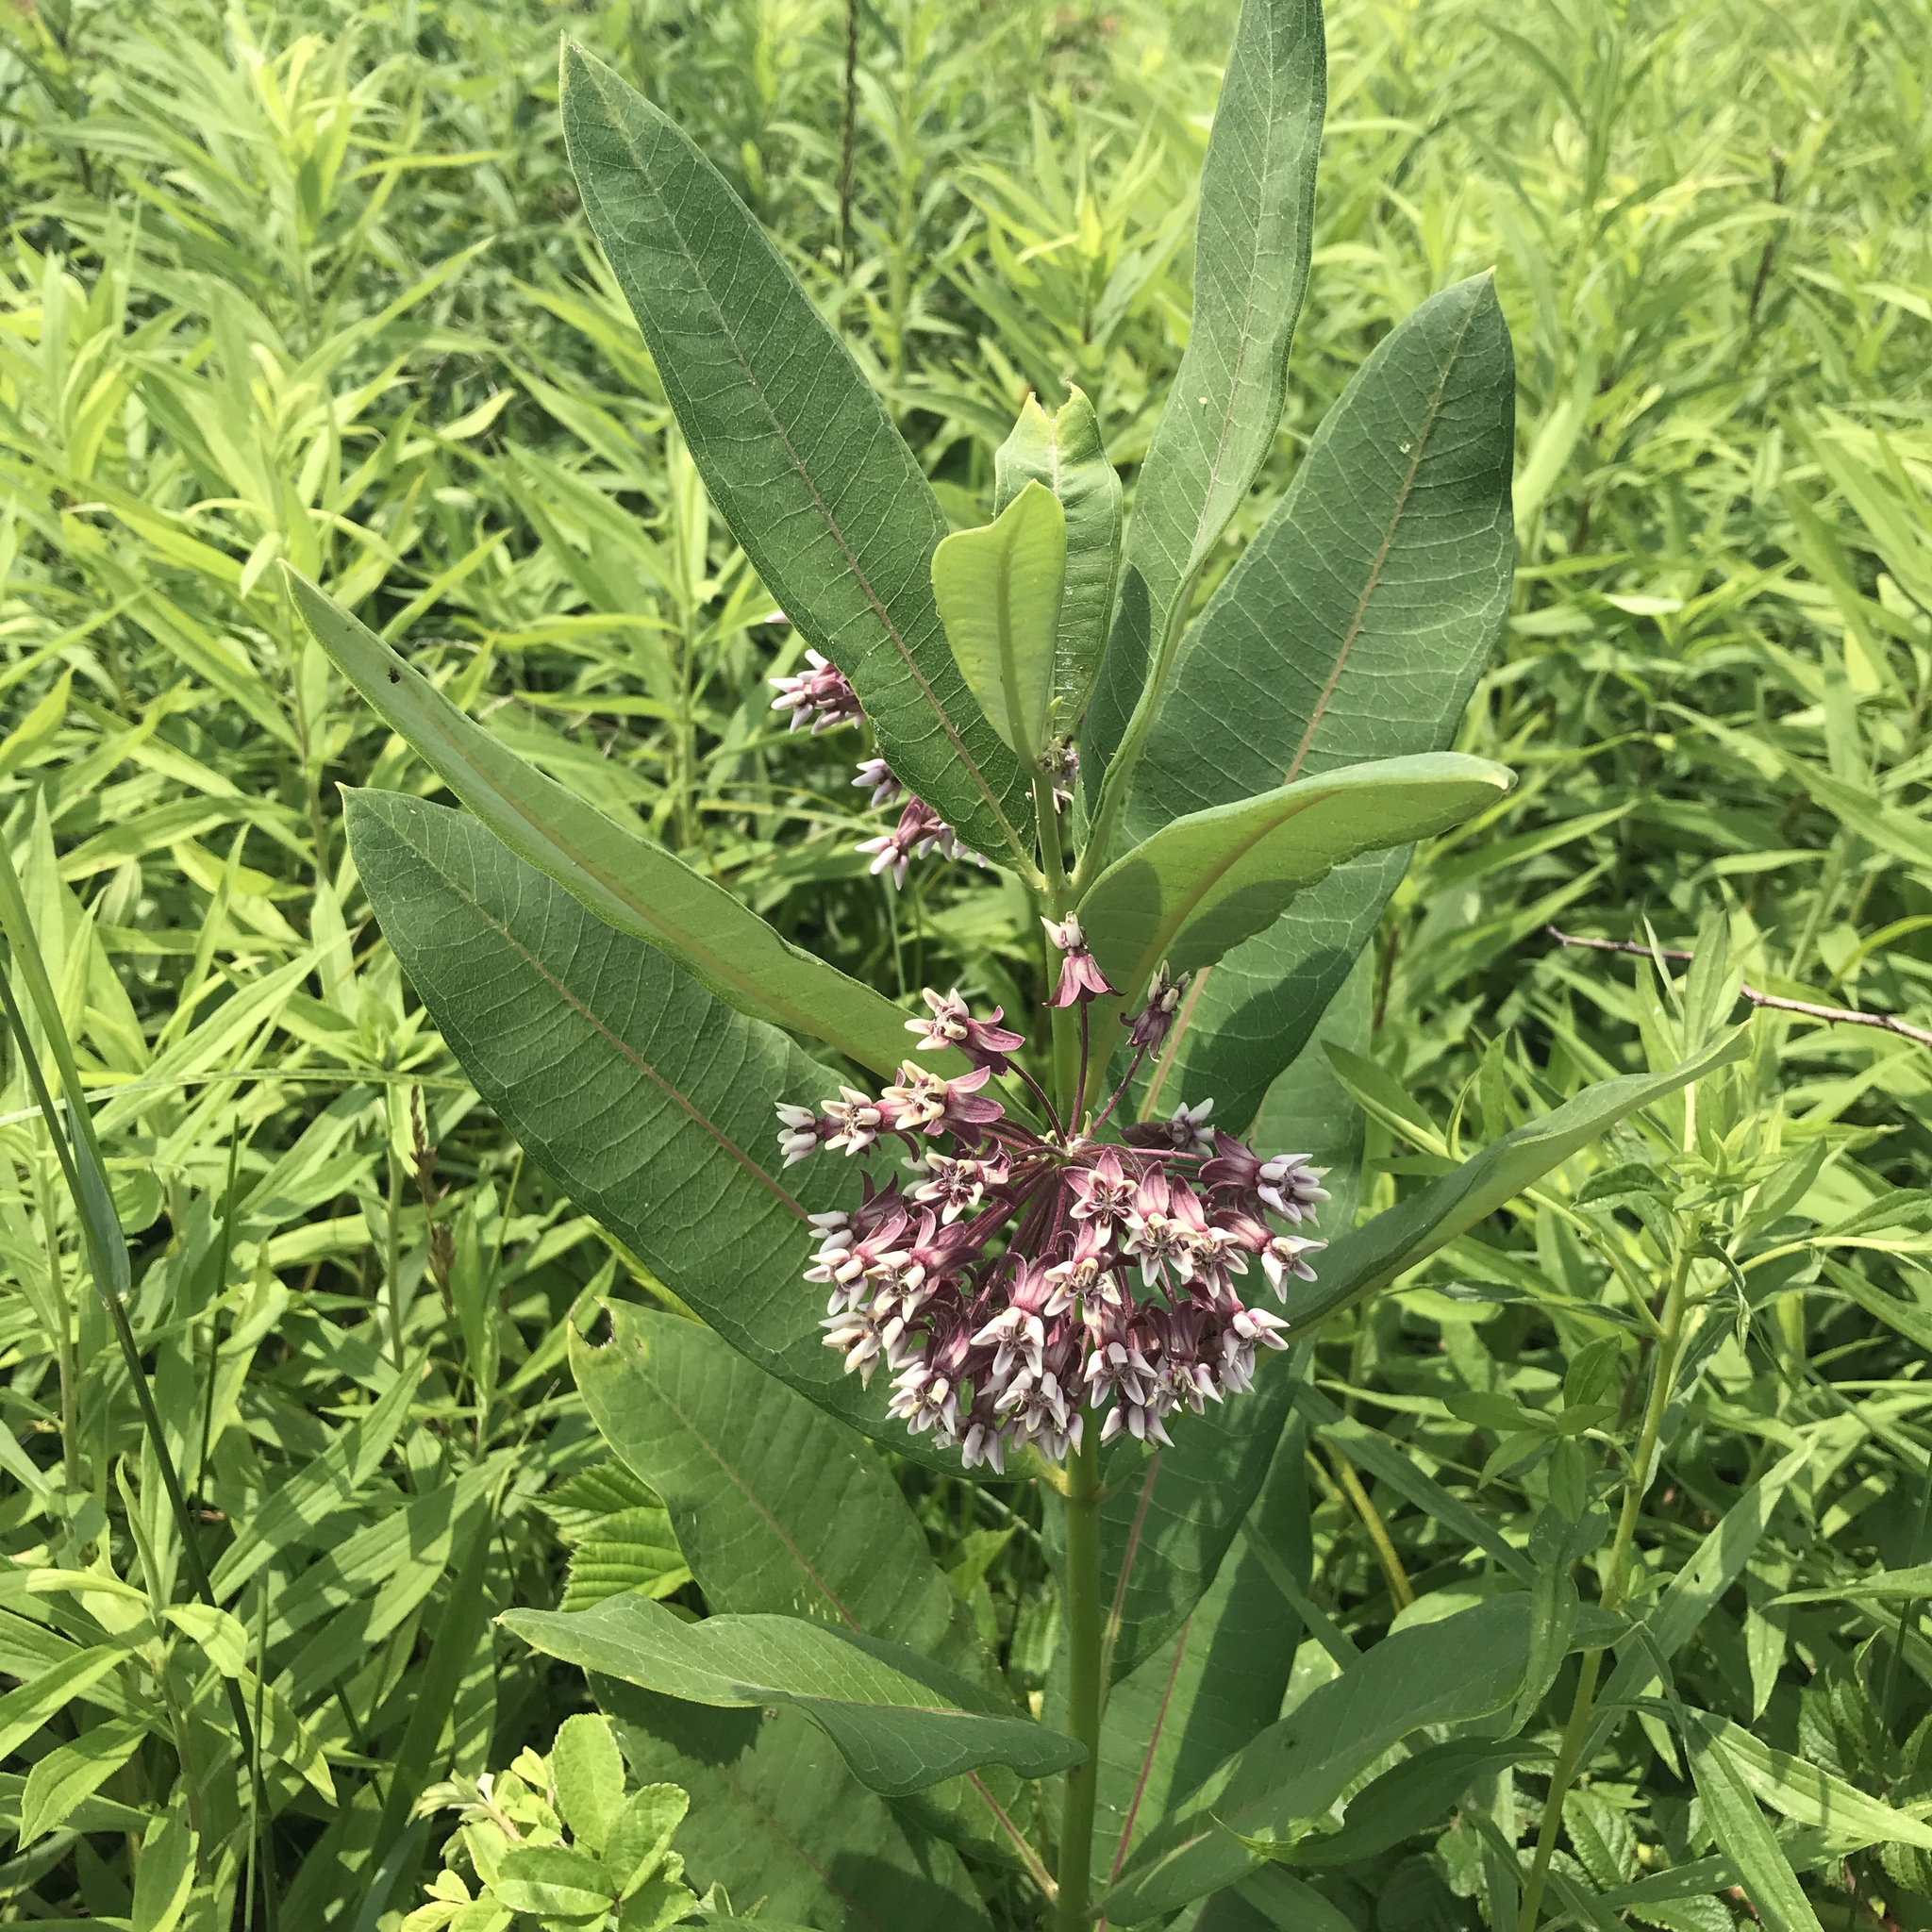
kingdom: Plantae
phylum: Tracheophyta
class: Magnoliopsida
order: Gentianales
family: Apocynaceae
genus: Asclepias
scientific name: Asclepias syriaca
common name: Common milkweed
